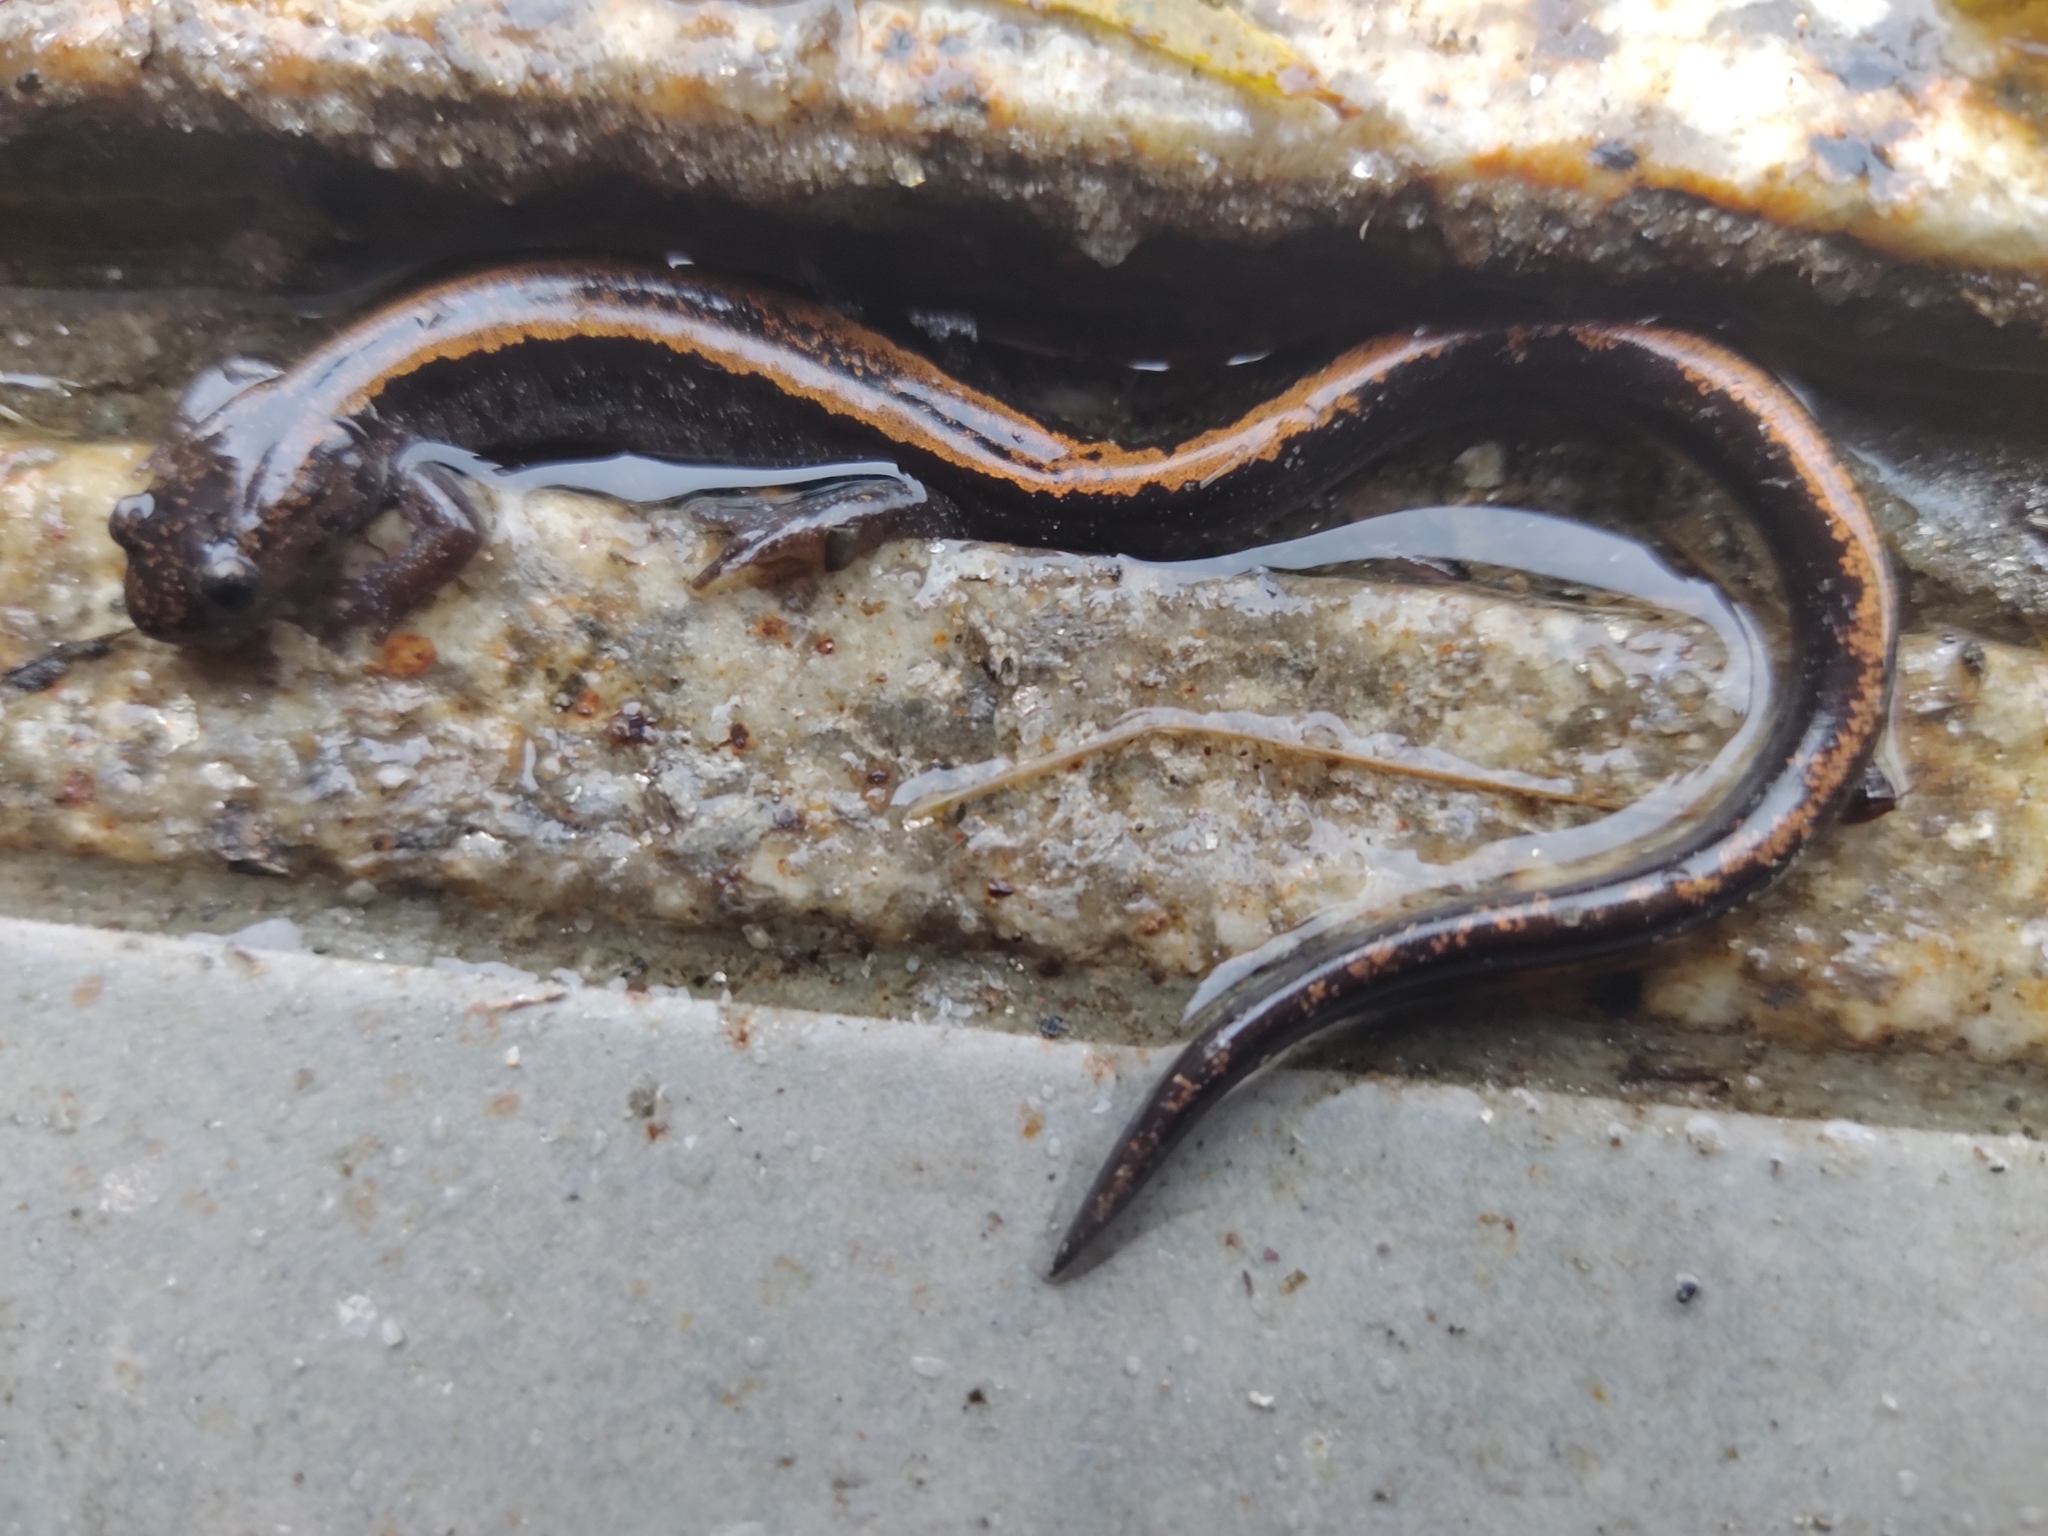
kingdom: Animalia
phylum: Chordata
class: Amphibia
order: Caudata
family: Salamandridae
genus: Chioglossa
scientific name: Chioglossa lusitanica
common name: Gold-striped salamander
